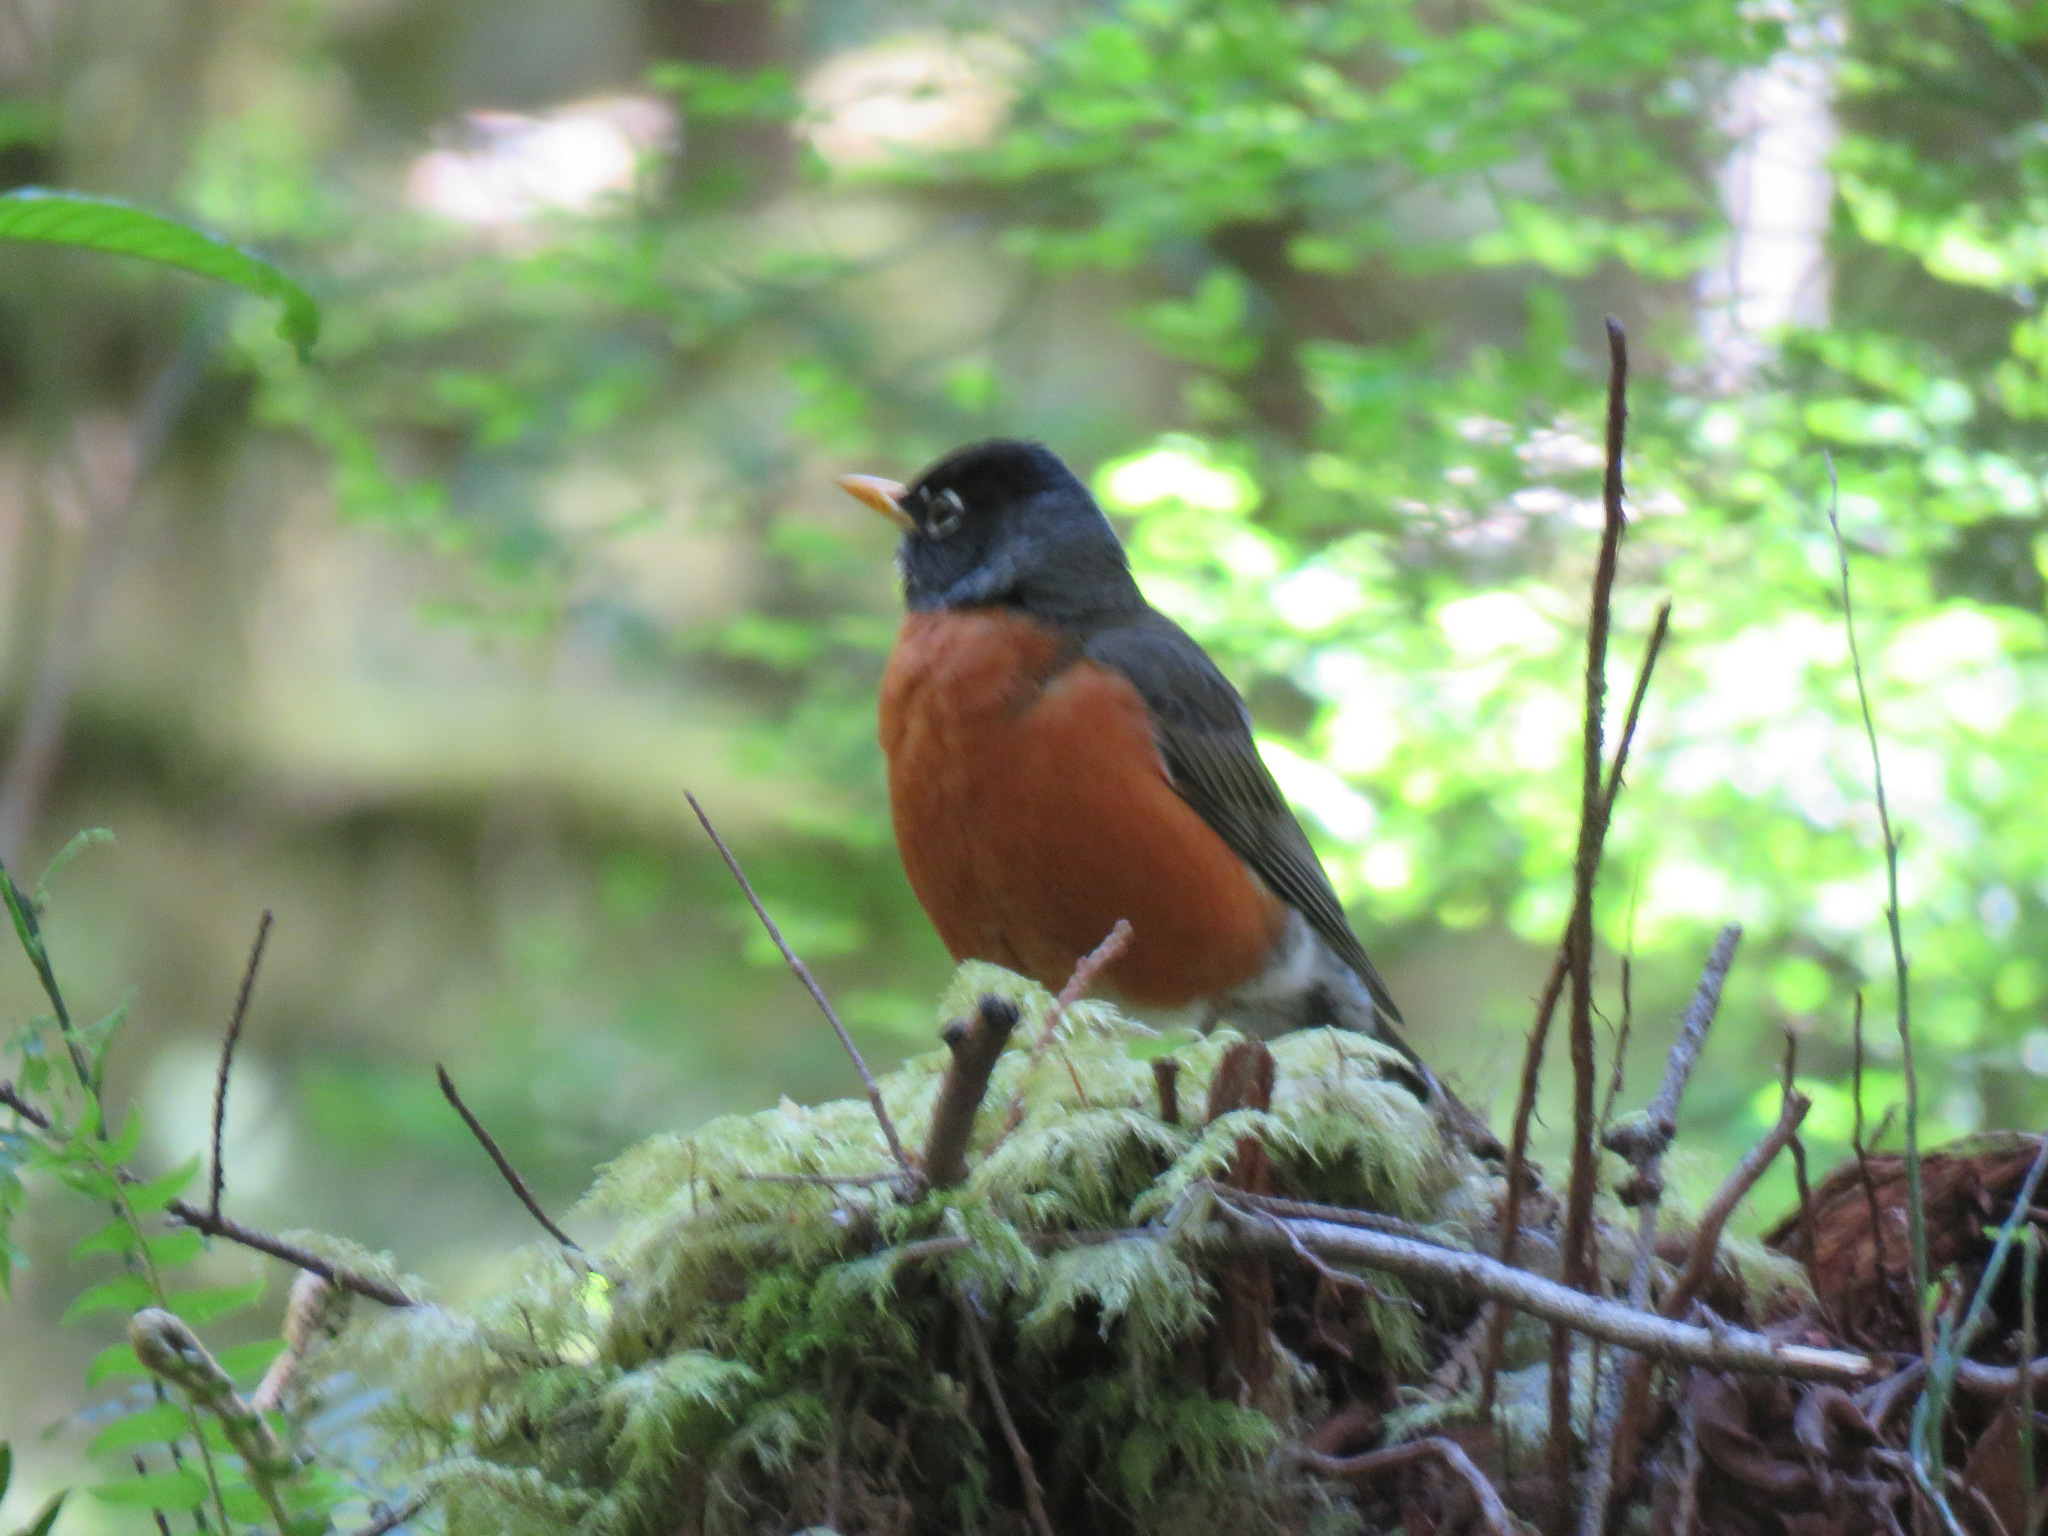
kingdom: Animalia
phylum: Chordata
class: Aves
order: Passeriformes
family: Turdidae
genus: Turdus
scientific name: Turdus migratorius
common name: American robin
